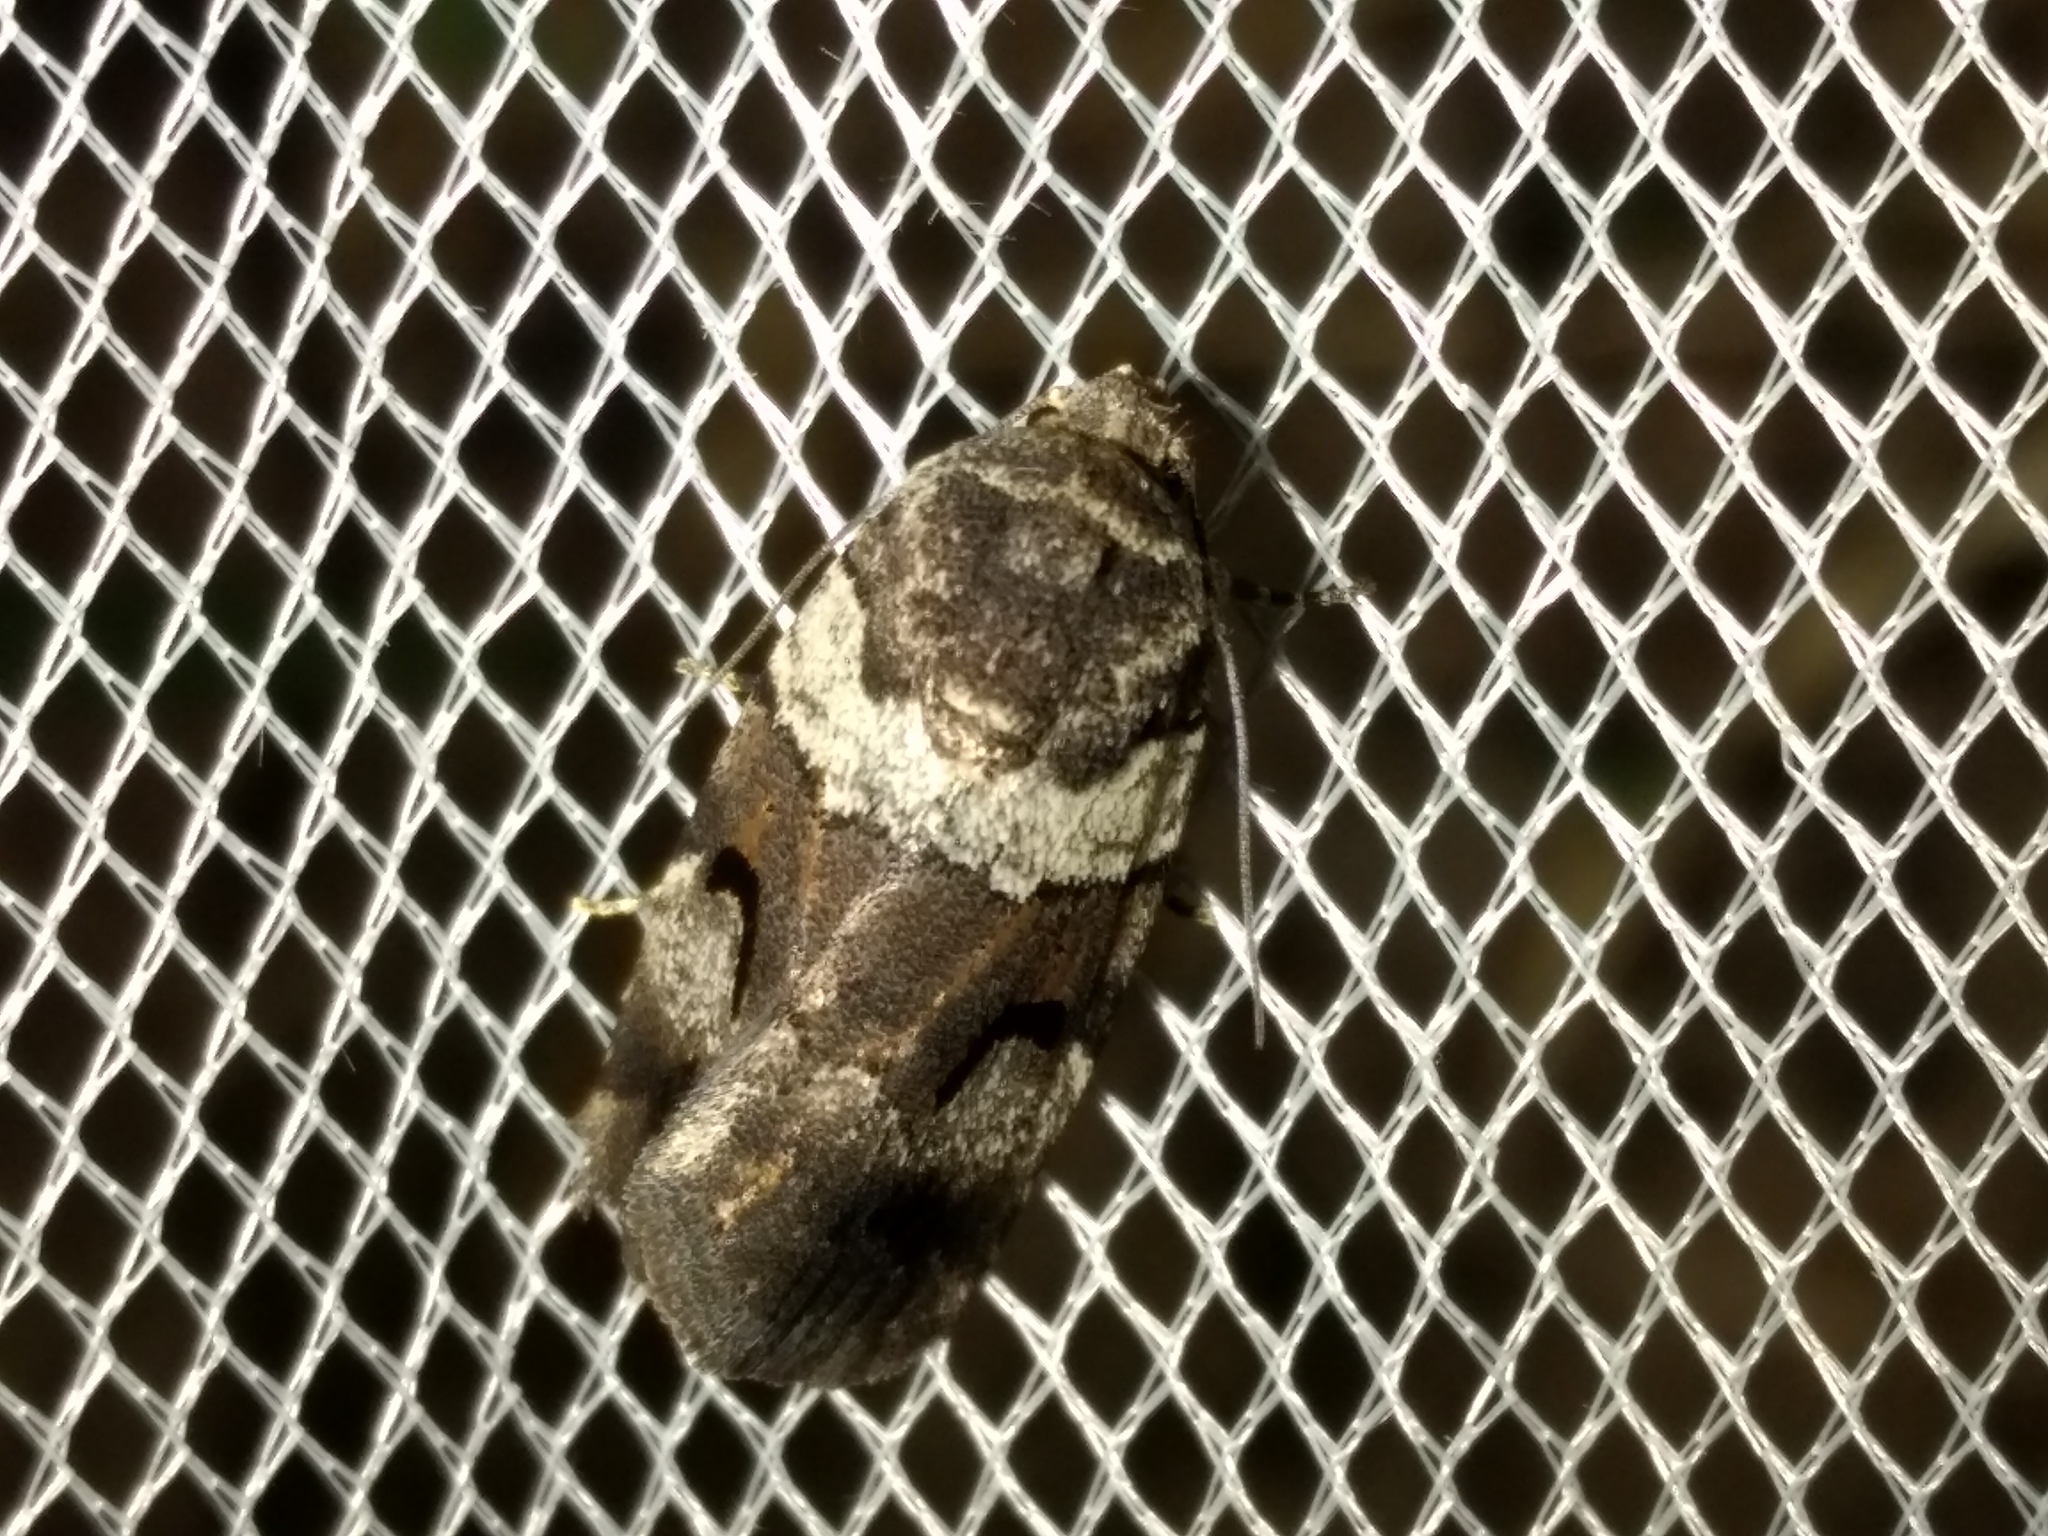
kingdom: Animalia
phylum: Arthropoda
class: Insecta
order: Lepidoptera
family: Noctuidae
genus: Thoracolopha
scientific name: Thoracolopha flexirena
